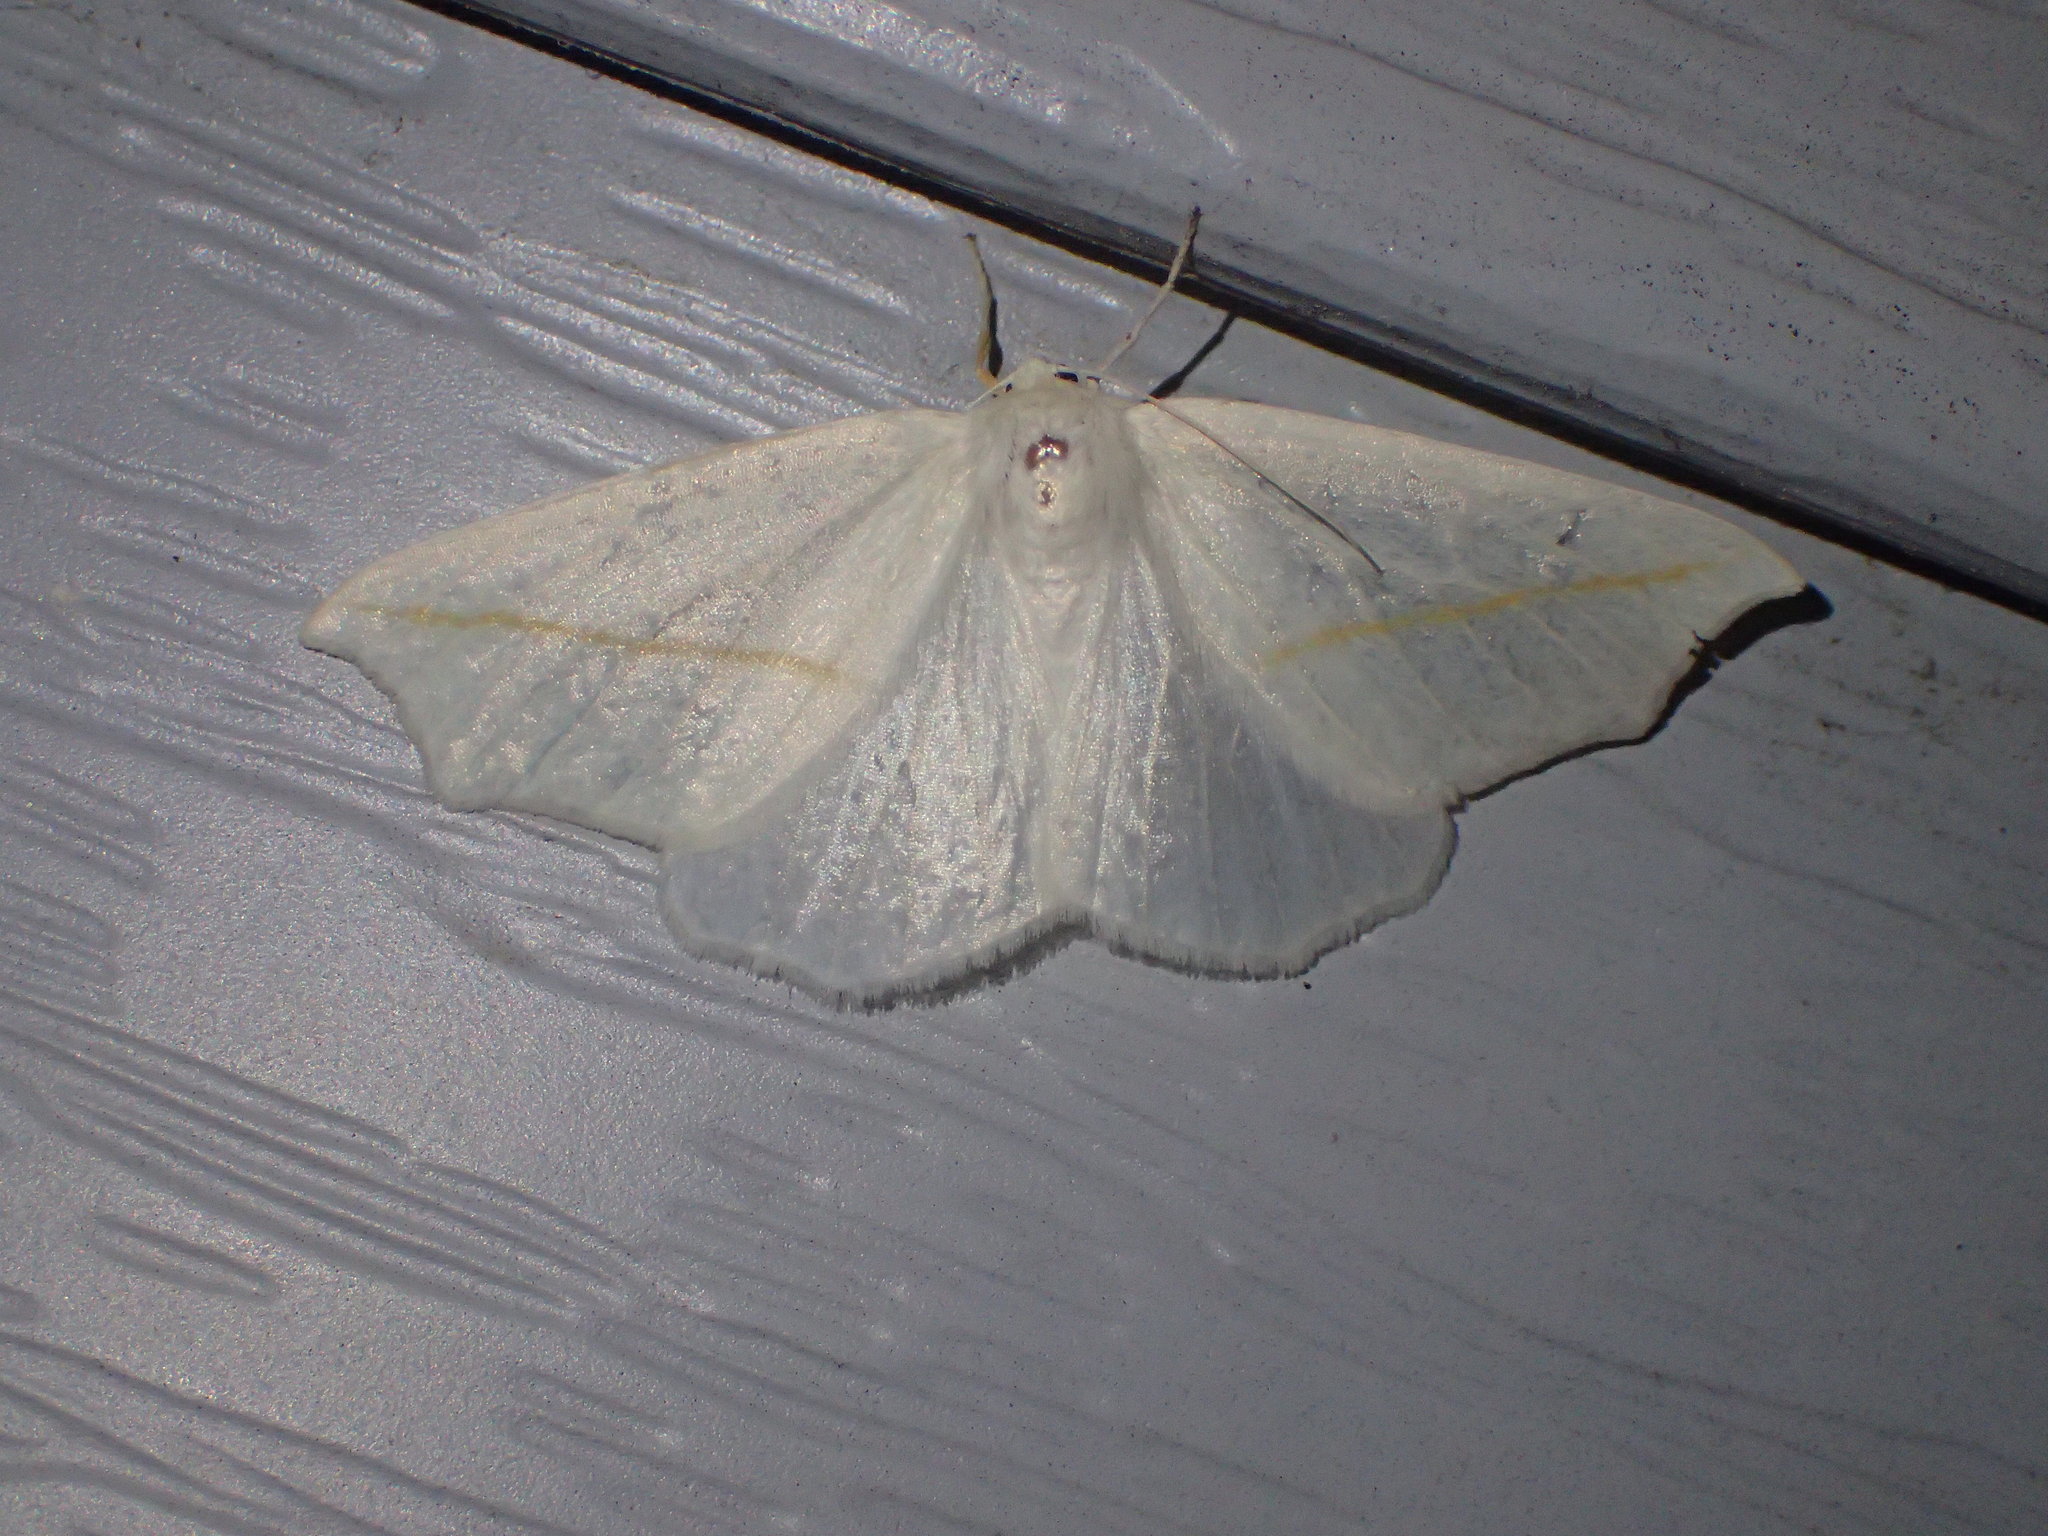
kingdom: Animalia
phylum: Arthropoda
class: Insecta
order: Lepidoptera
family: Geometridae
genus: Tetracis
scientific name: Tetracis cachexiata
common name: White slant-line
